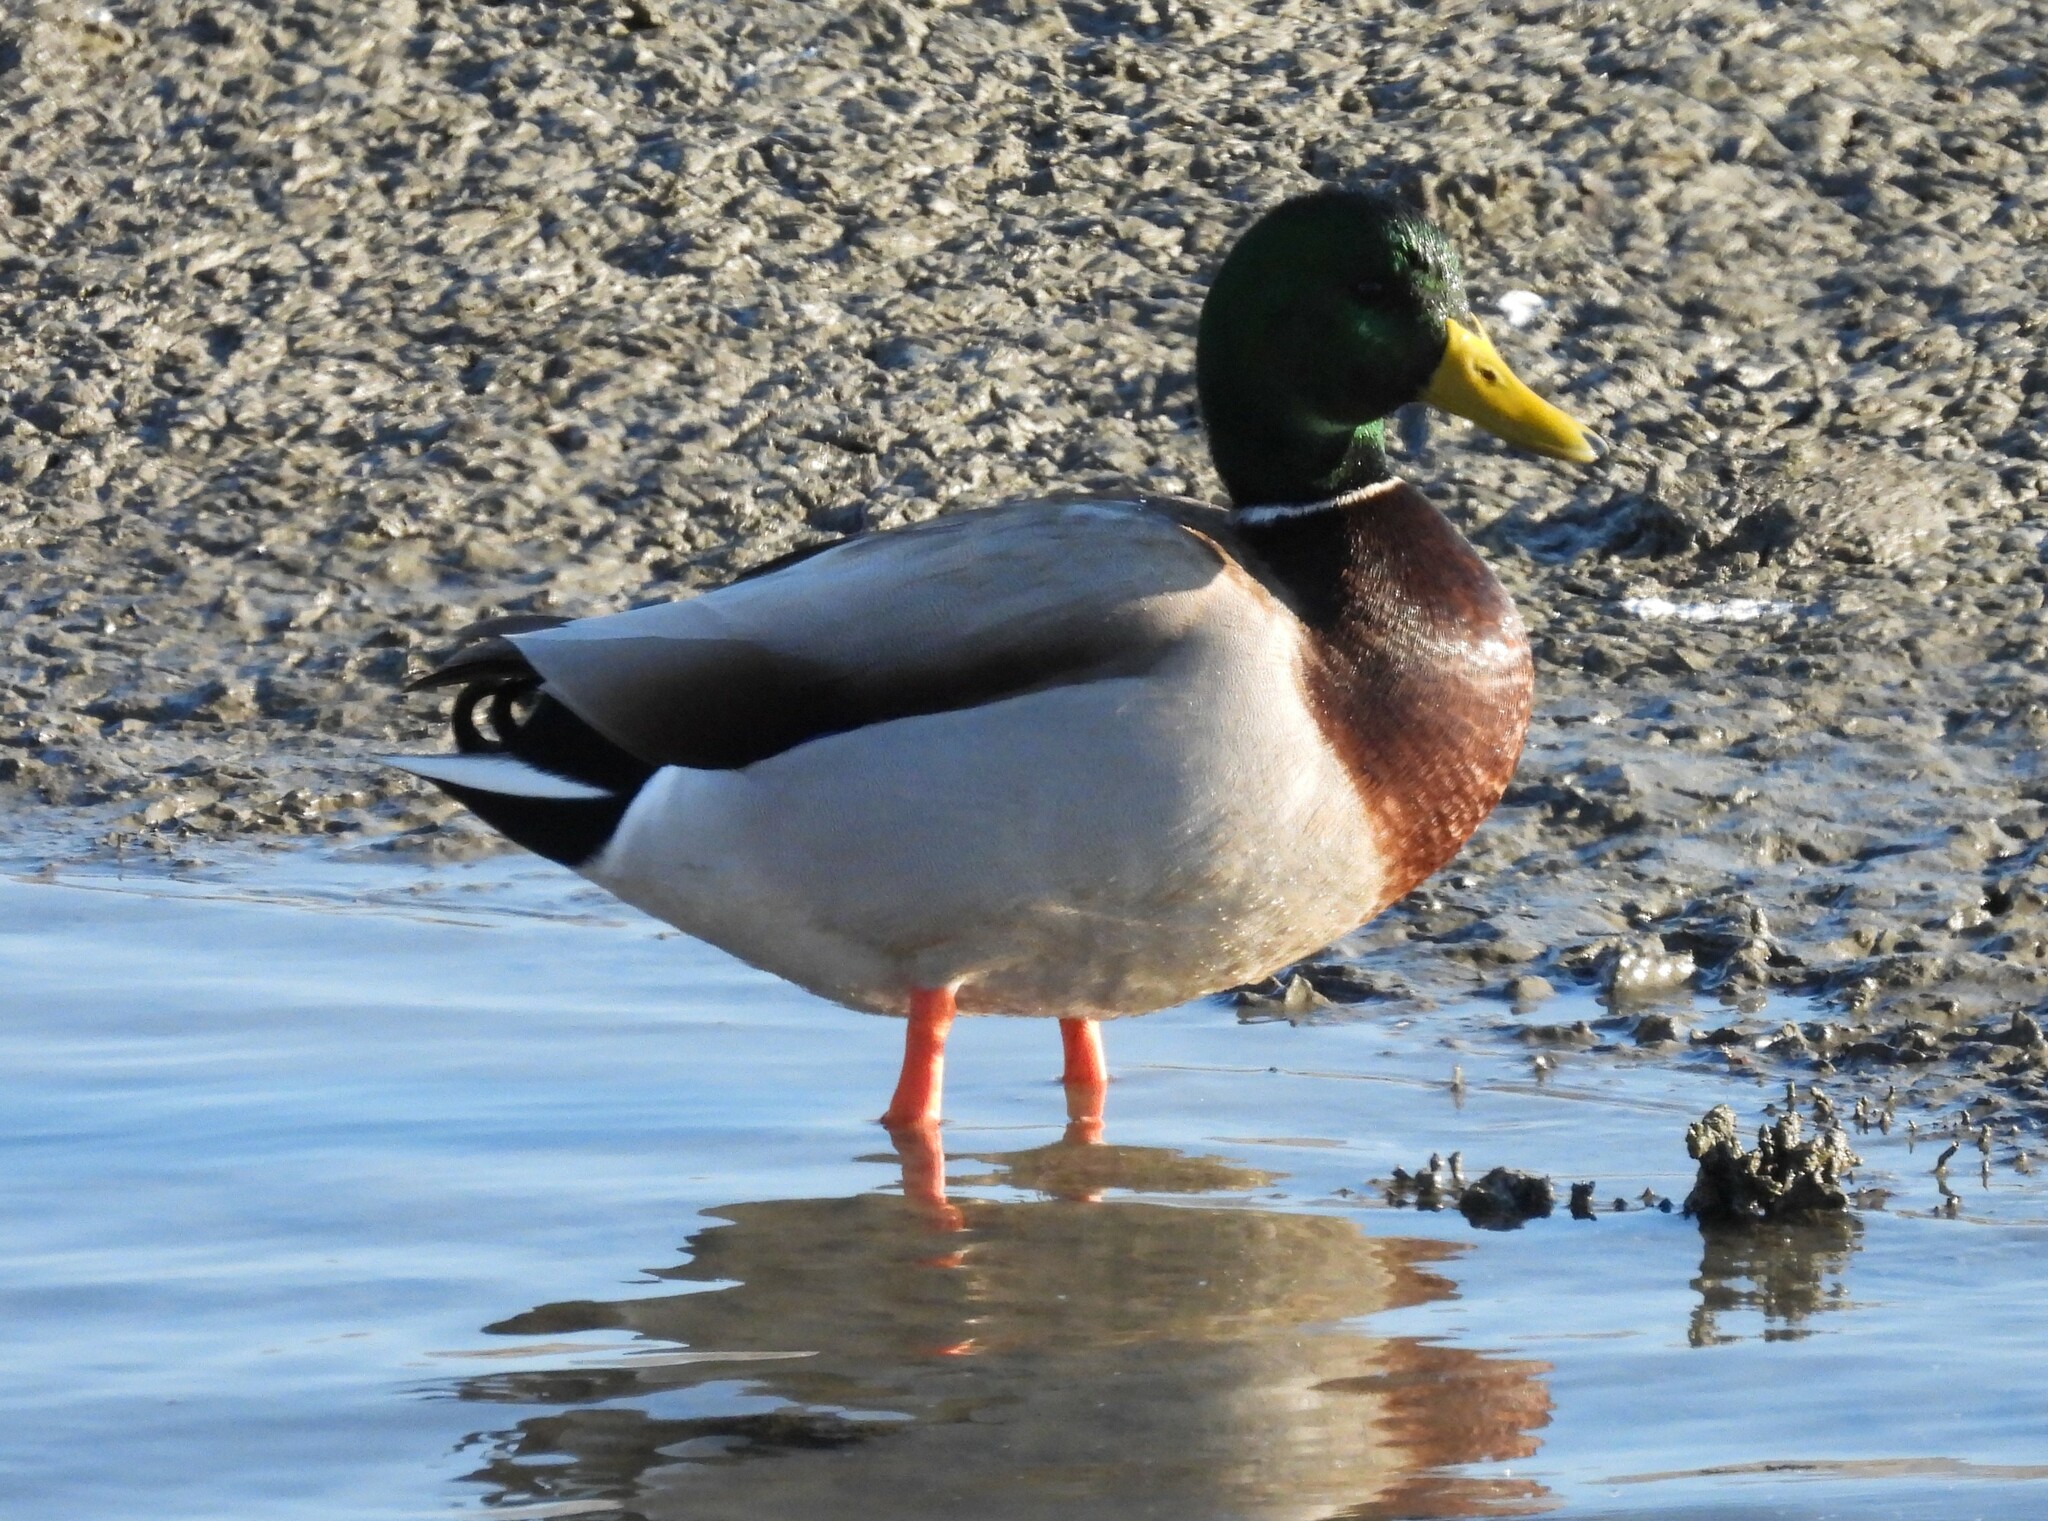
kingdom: Animalia
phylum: Chordata
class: Aves
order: Anseriformes
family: Anatidae
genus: Anas
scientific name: Anas platyrhynchos
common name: Mallard
